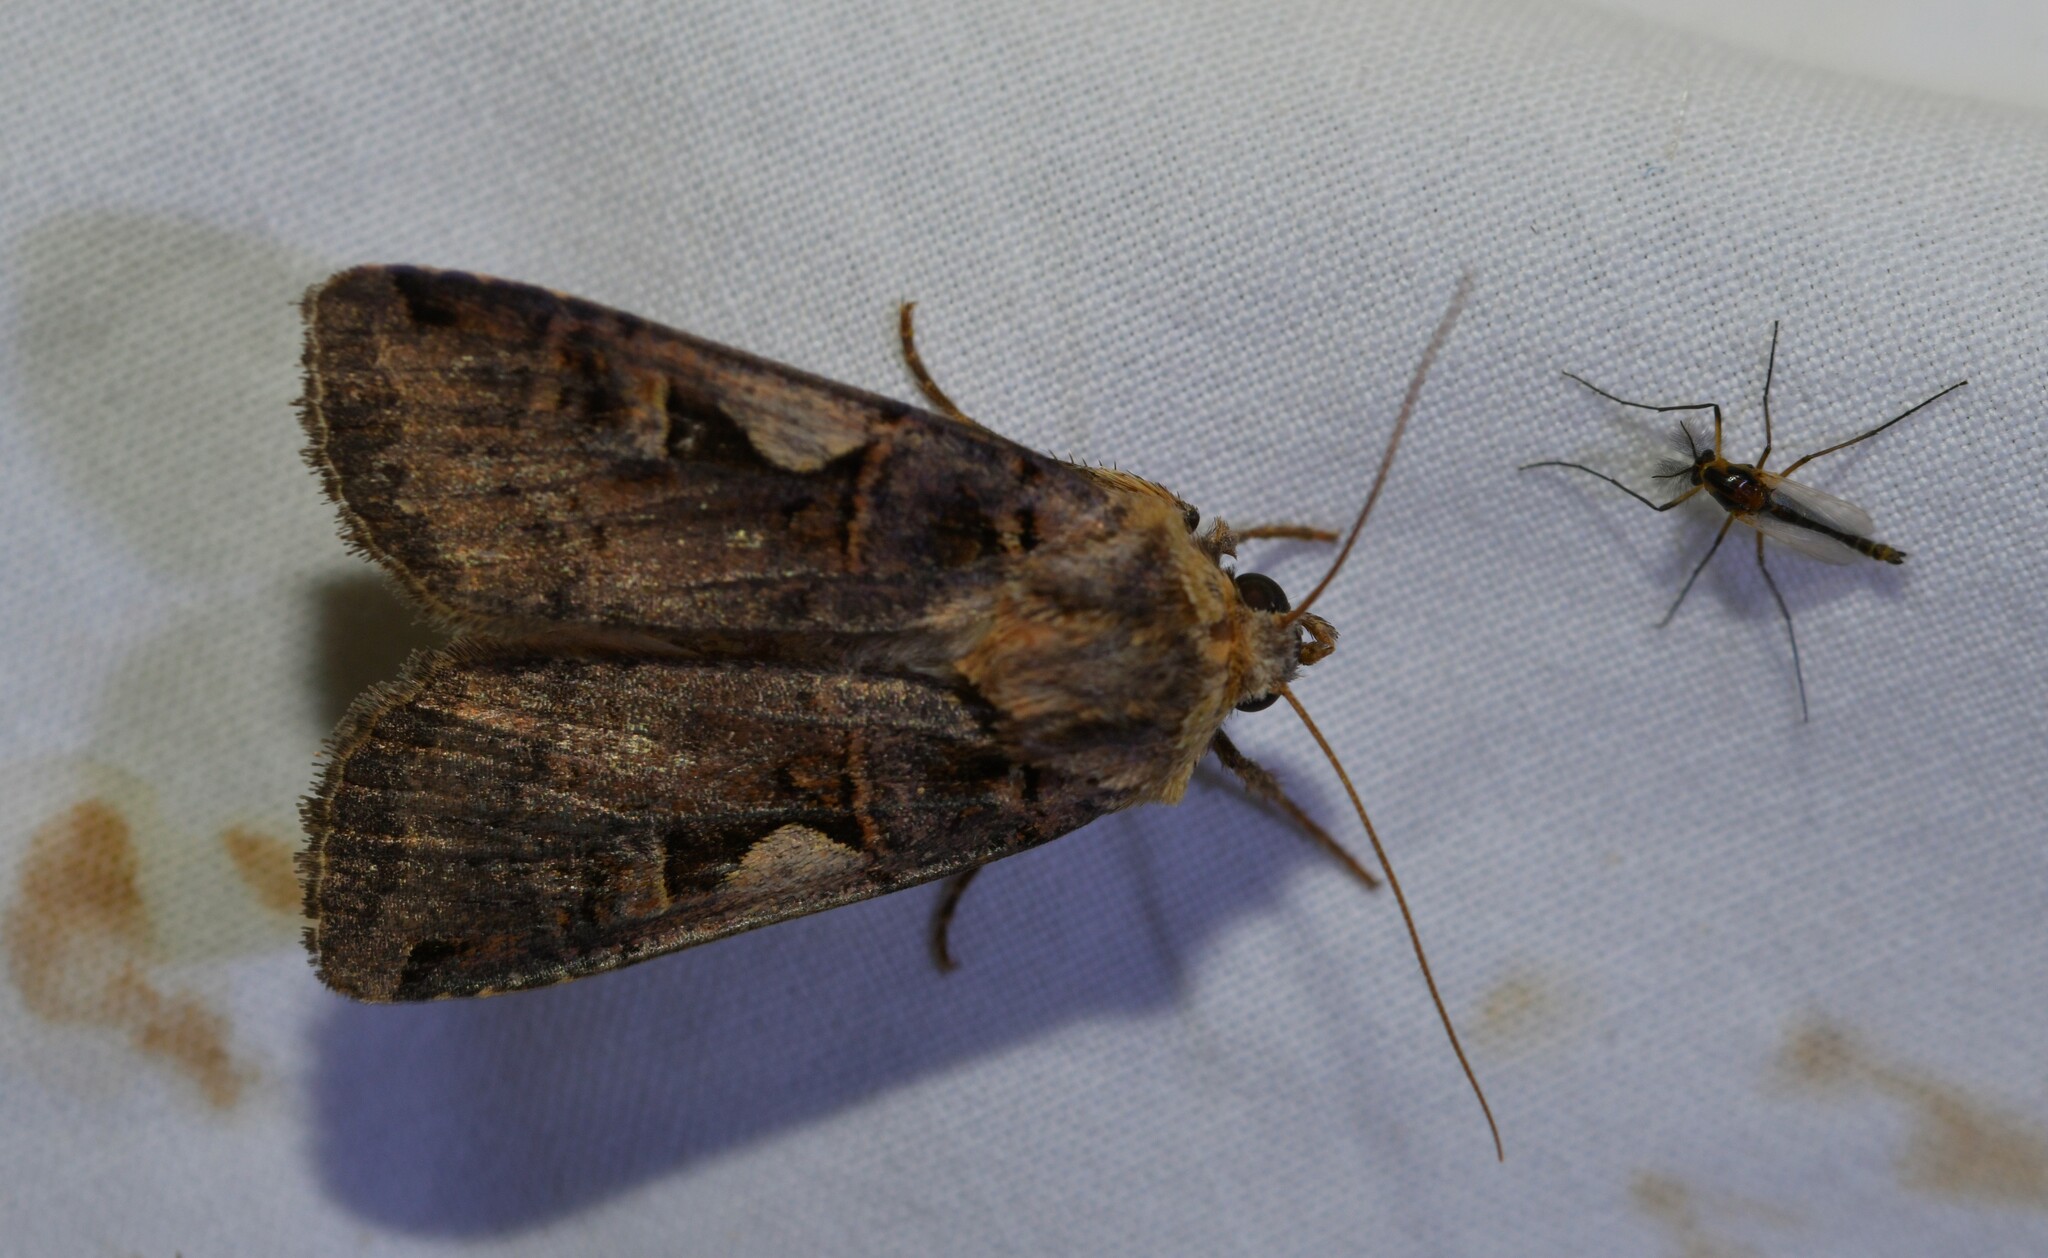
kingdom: Animalia
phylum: Arthropoda
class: Insecta
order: Lepidoptera
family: Noctuidae
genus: Xestia
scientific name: Xestia c-nigrum
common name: Setaceous hebrew character
